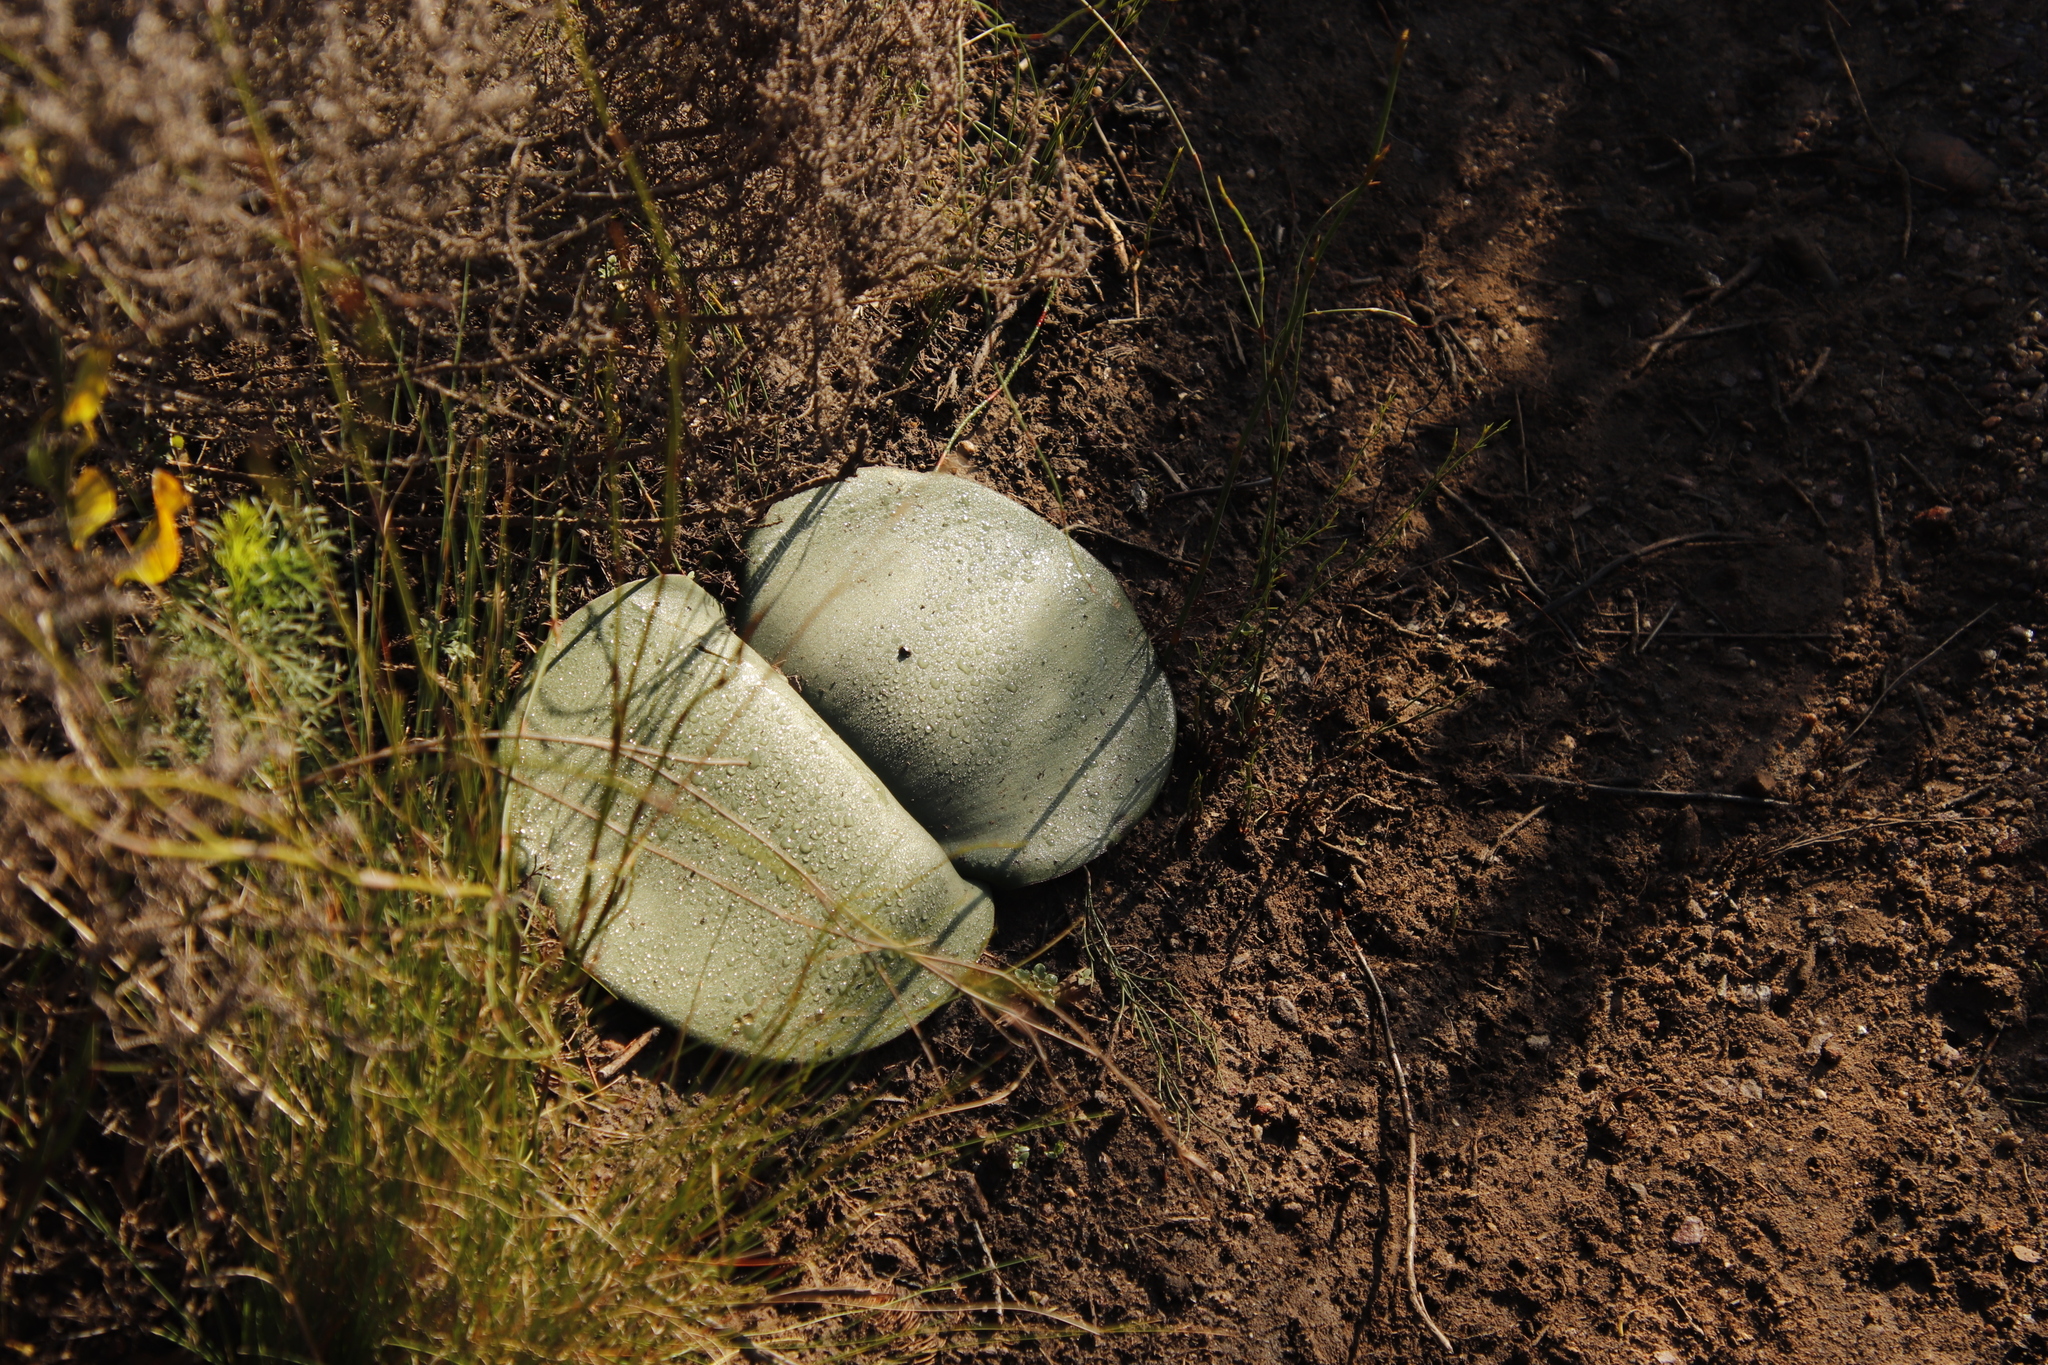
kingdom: Plantae
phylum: Tracheophyta
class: Liliopsida
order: Asparagales
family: Amaryllidaceae
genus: Haemanthus
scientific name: Haemanthus sanguineus
